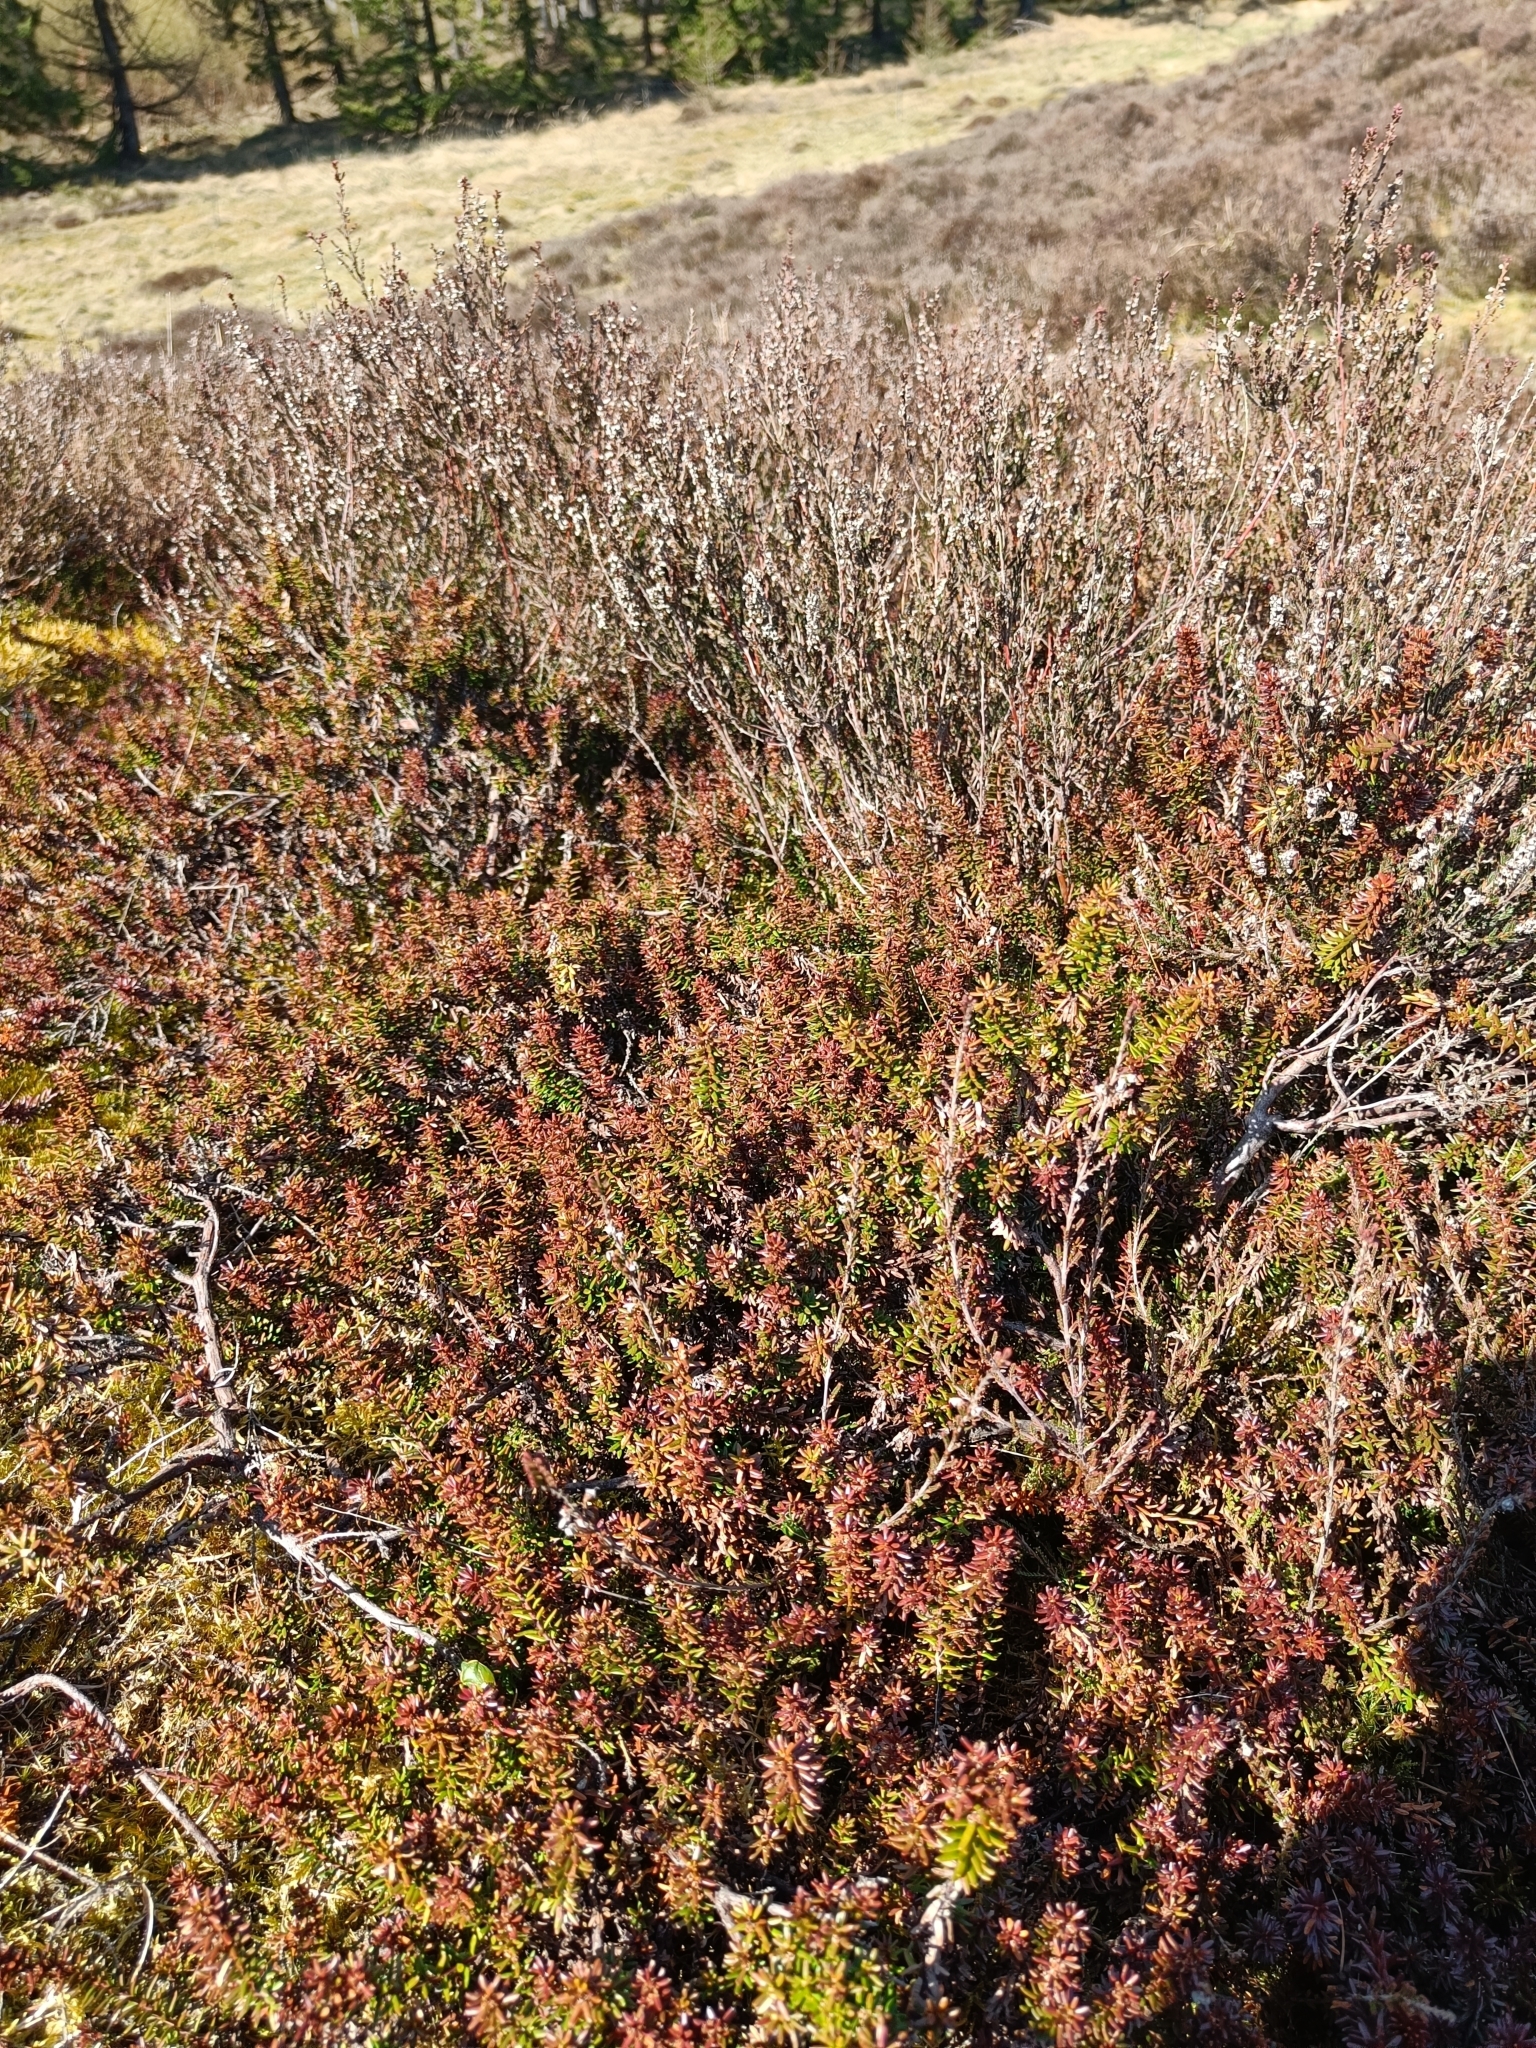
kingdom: Plantae
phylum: Tracheophyta
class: Magnoliopsida
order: Ericales
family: Ericaceae
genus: Empetrum
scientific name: Empetrum nigrum
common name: Black crowberry
